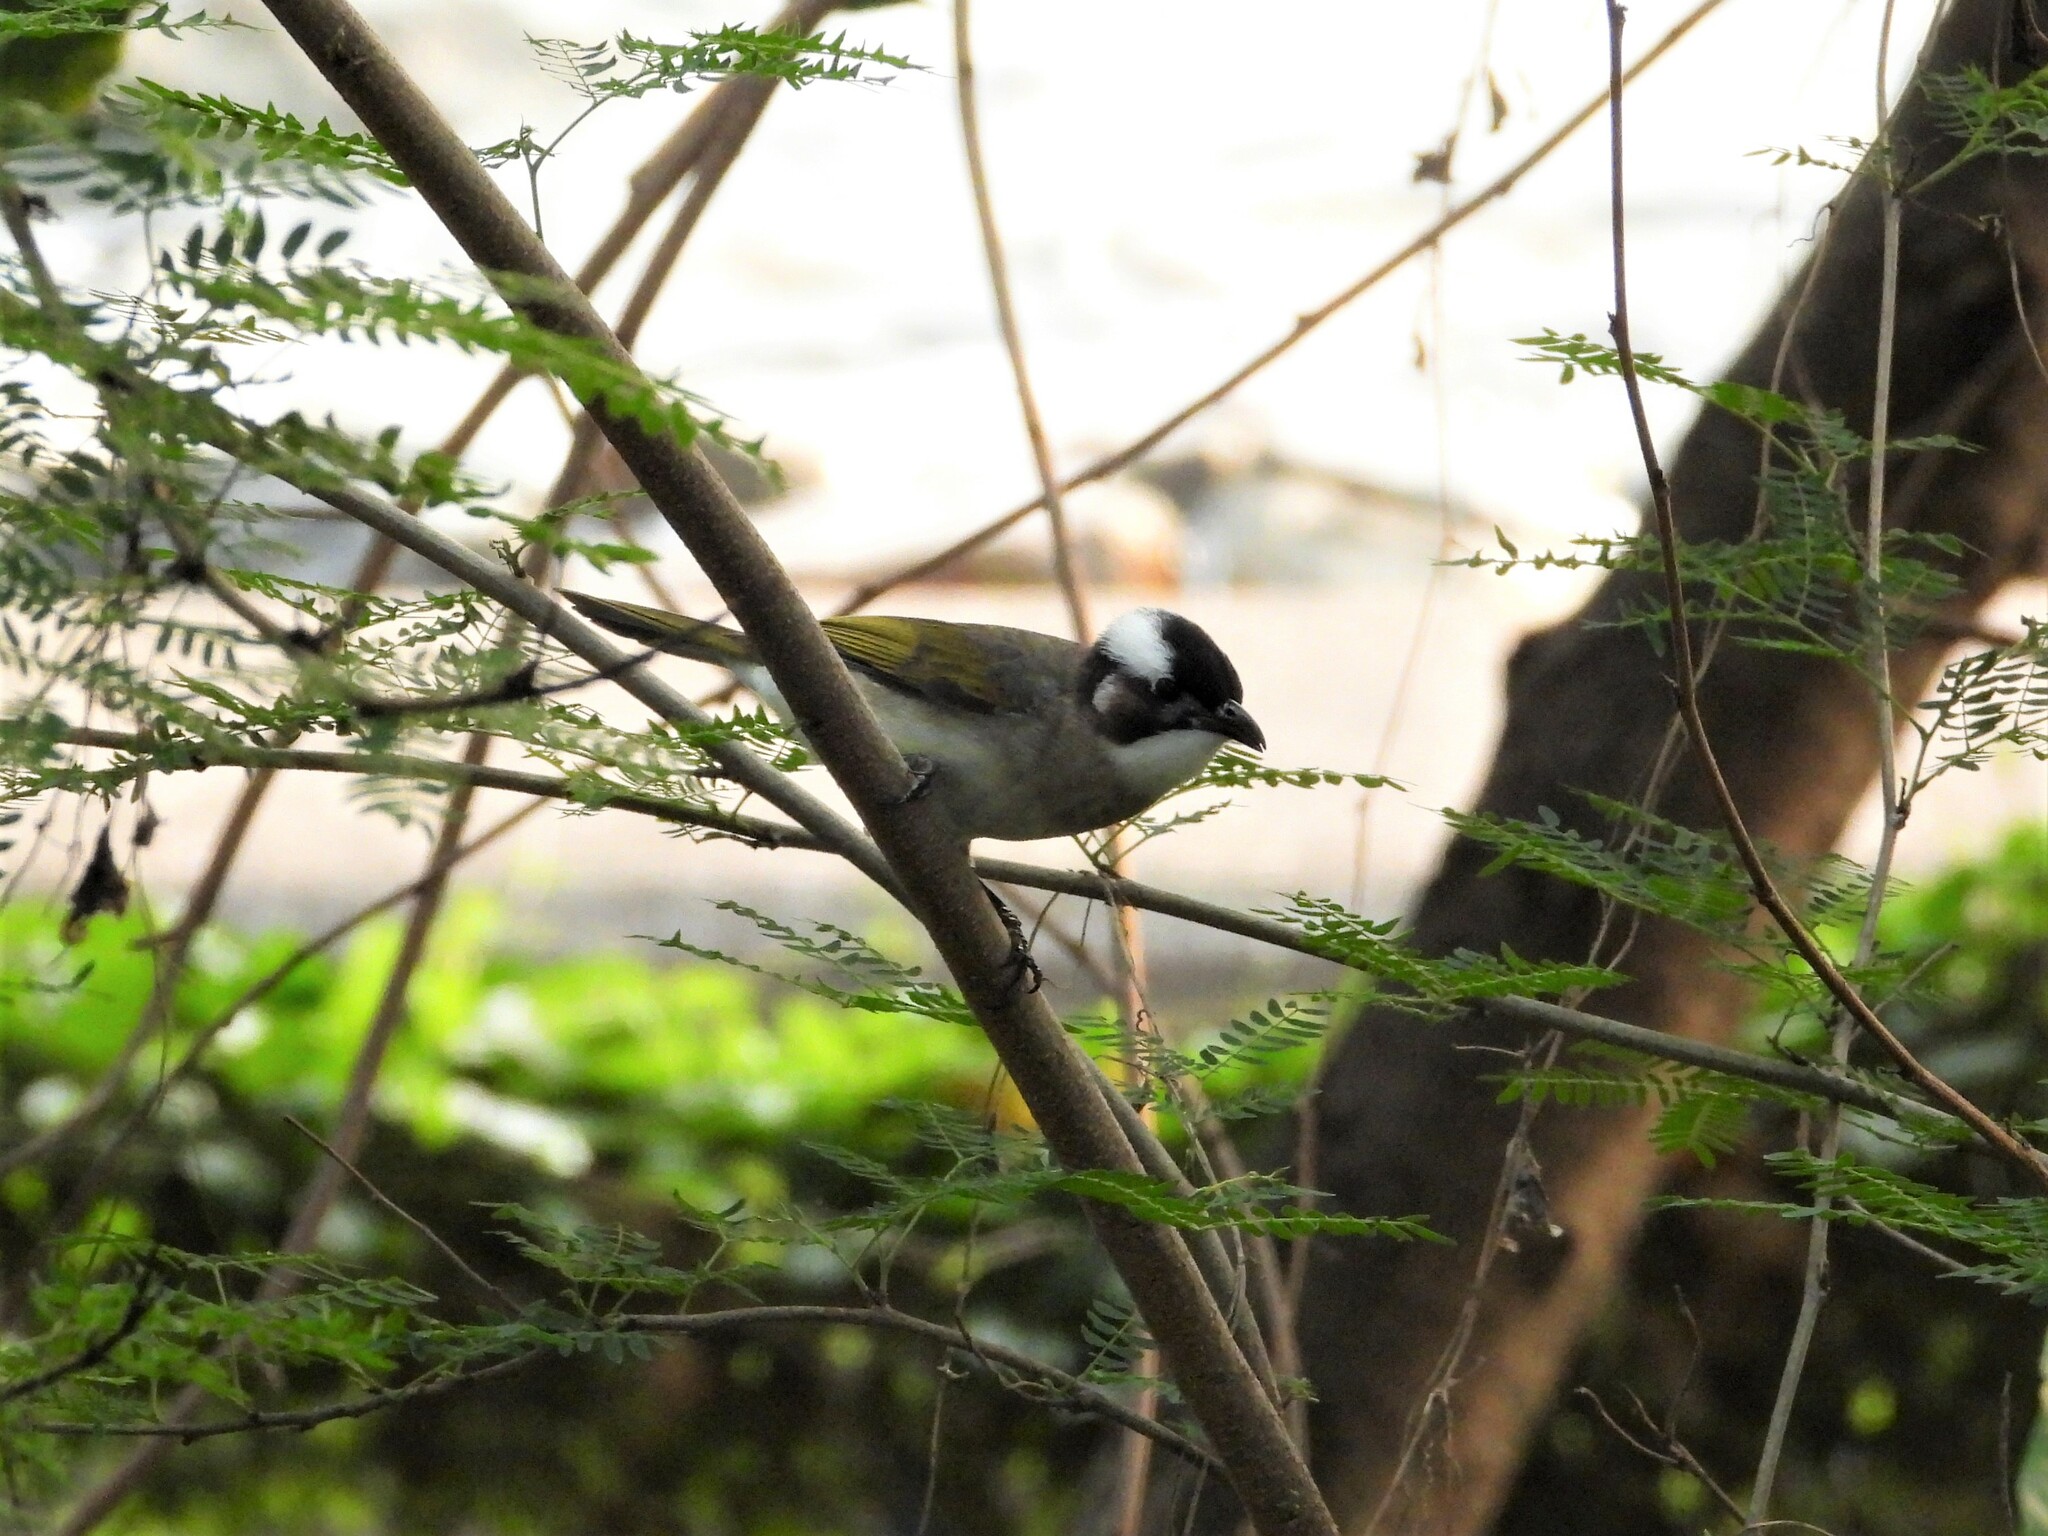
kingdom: Animalia
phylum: Chordata
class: Aves
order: Passeriformes
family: Pycnonotidae
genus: Pycnonotus
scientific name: Pycnonotus sinensis
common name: Light-vented bulbul
